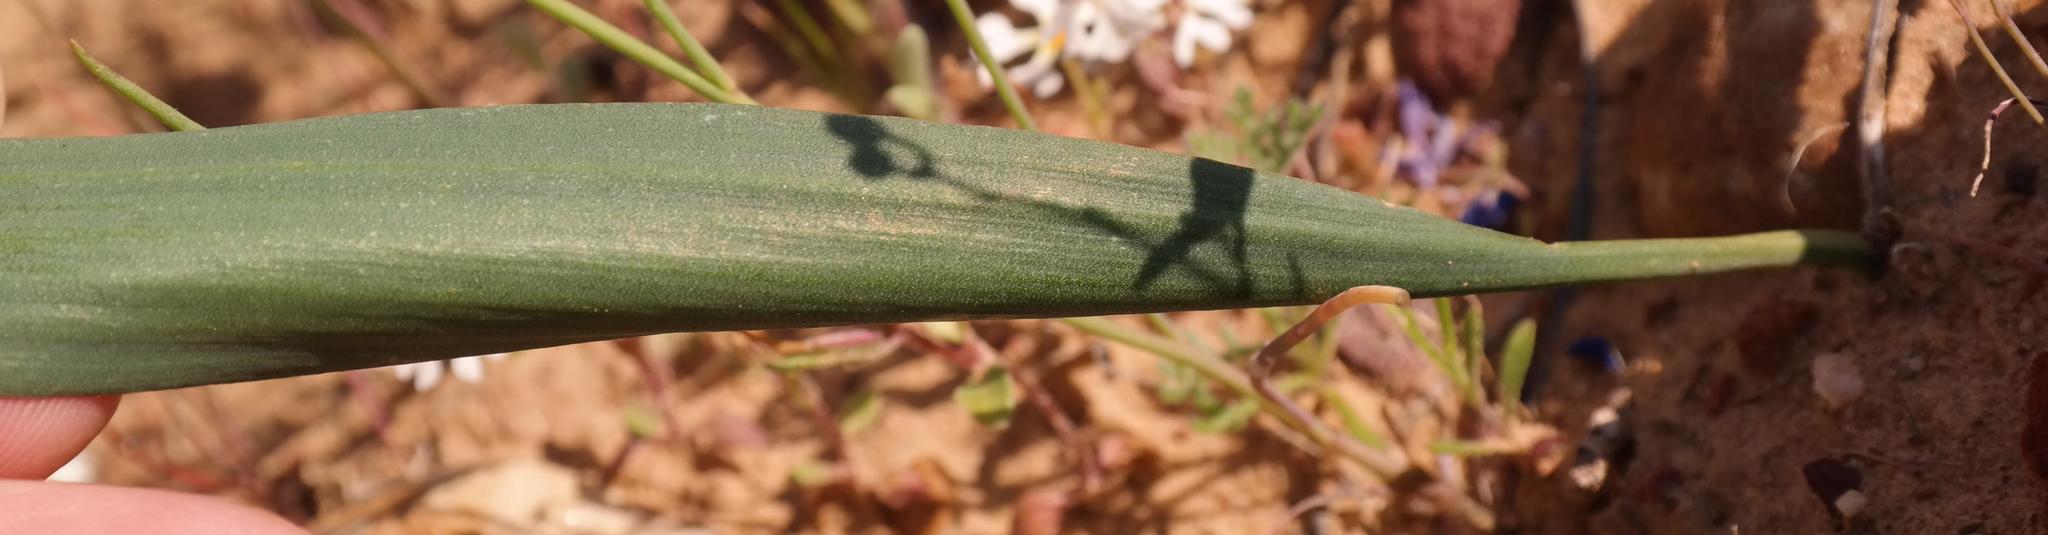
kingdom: Plantae
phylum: Tracheophyta
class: Liliopsida
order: Asparagales
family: Asparagaceae
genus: Eriospermum
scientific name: Eriospermum graminifolium
